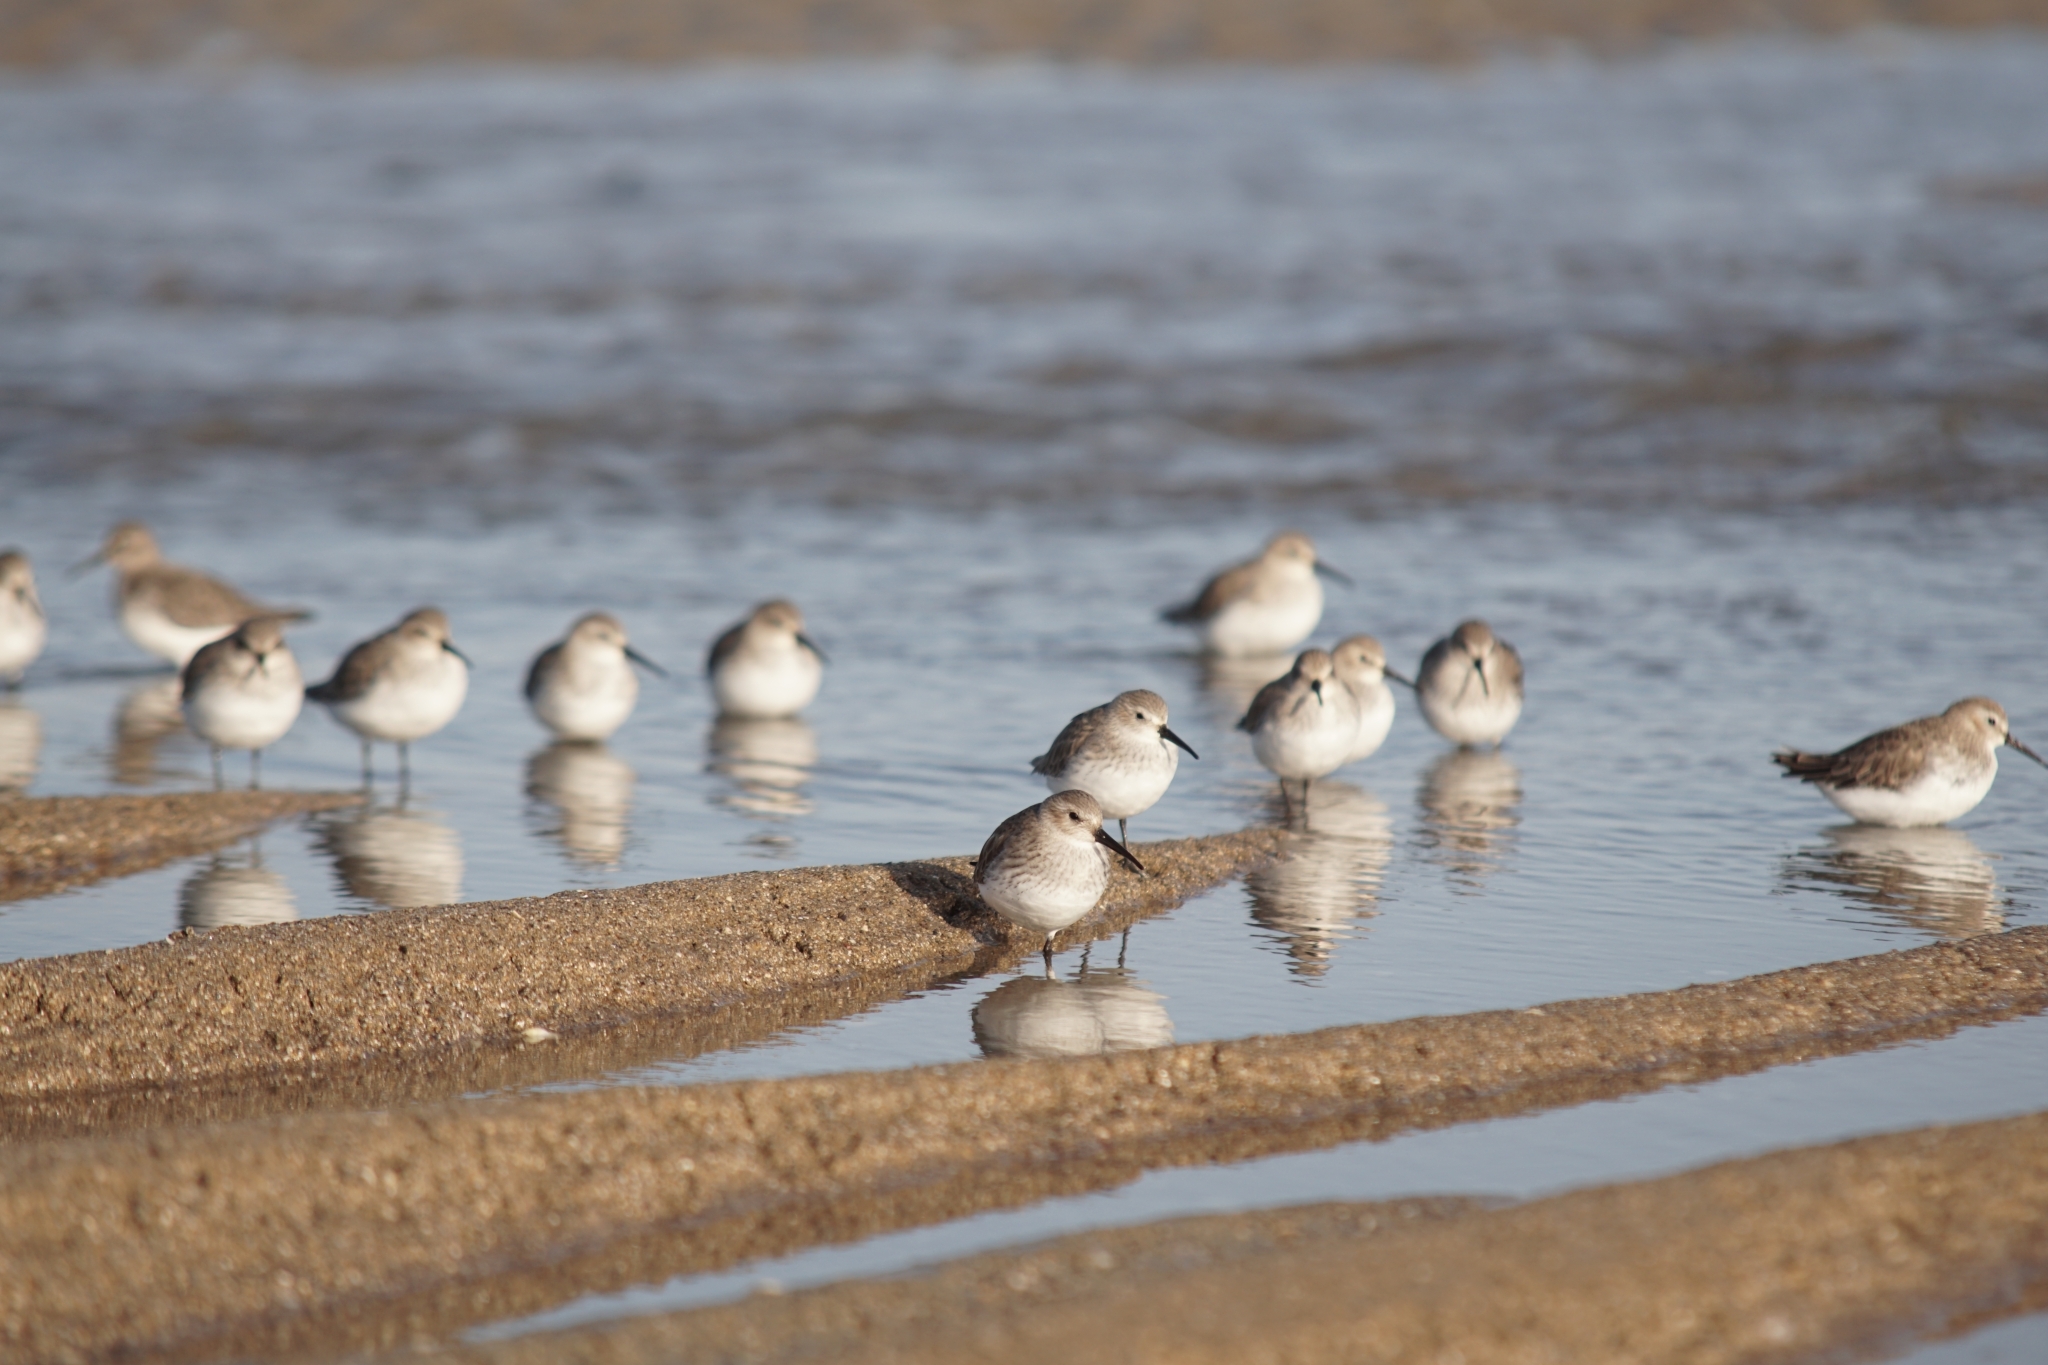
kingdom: Animalia
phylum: Chordata
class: Aves
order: Charadriiformes
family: Scolopacidae
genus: Calidris
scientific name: Calidris alpina
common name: Dunlin
